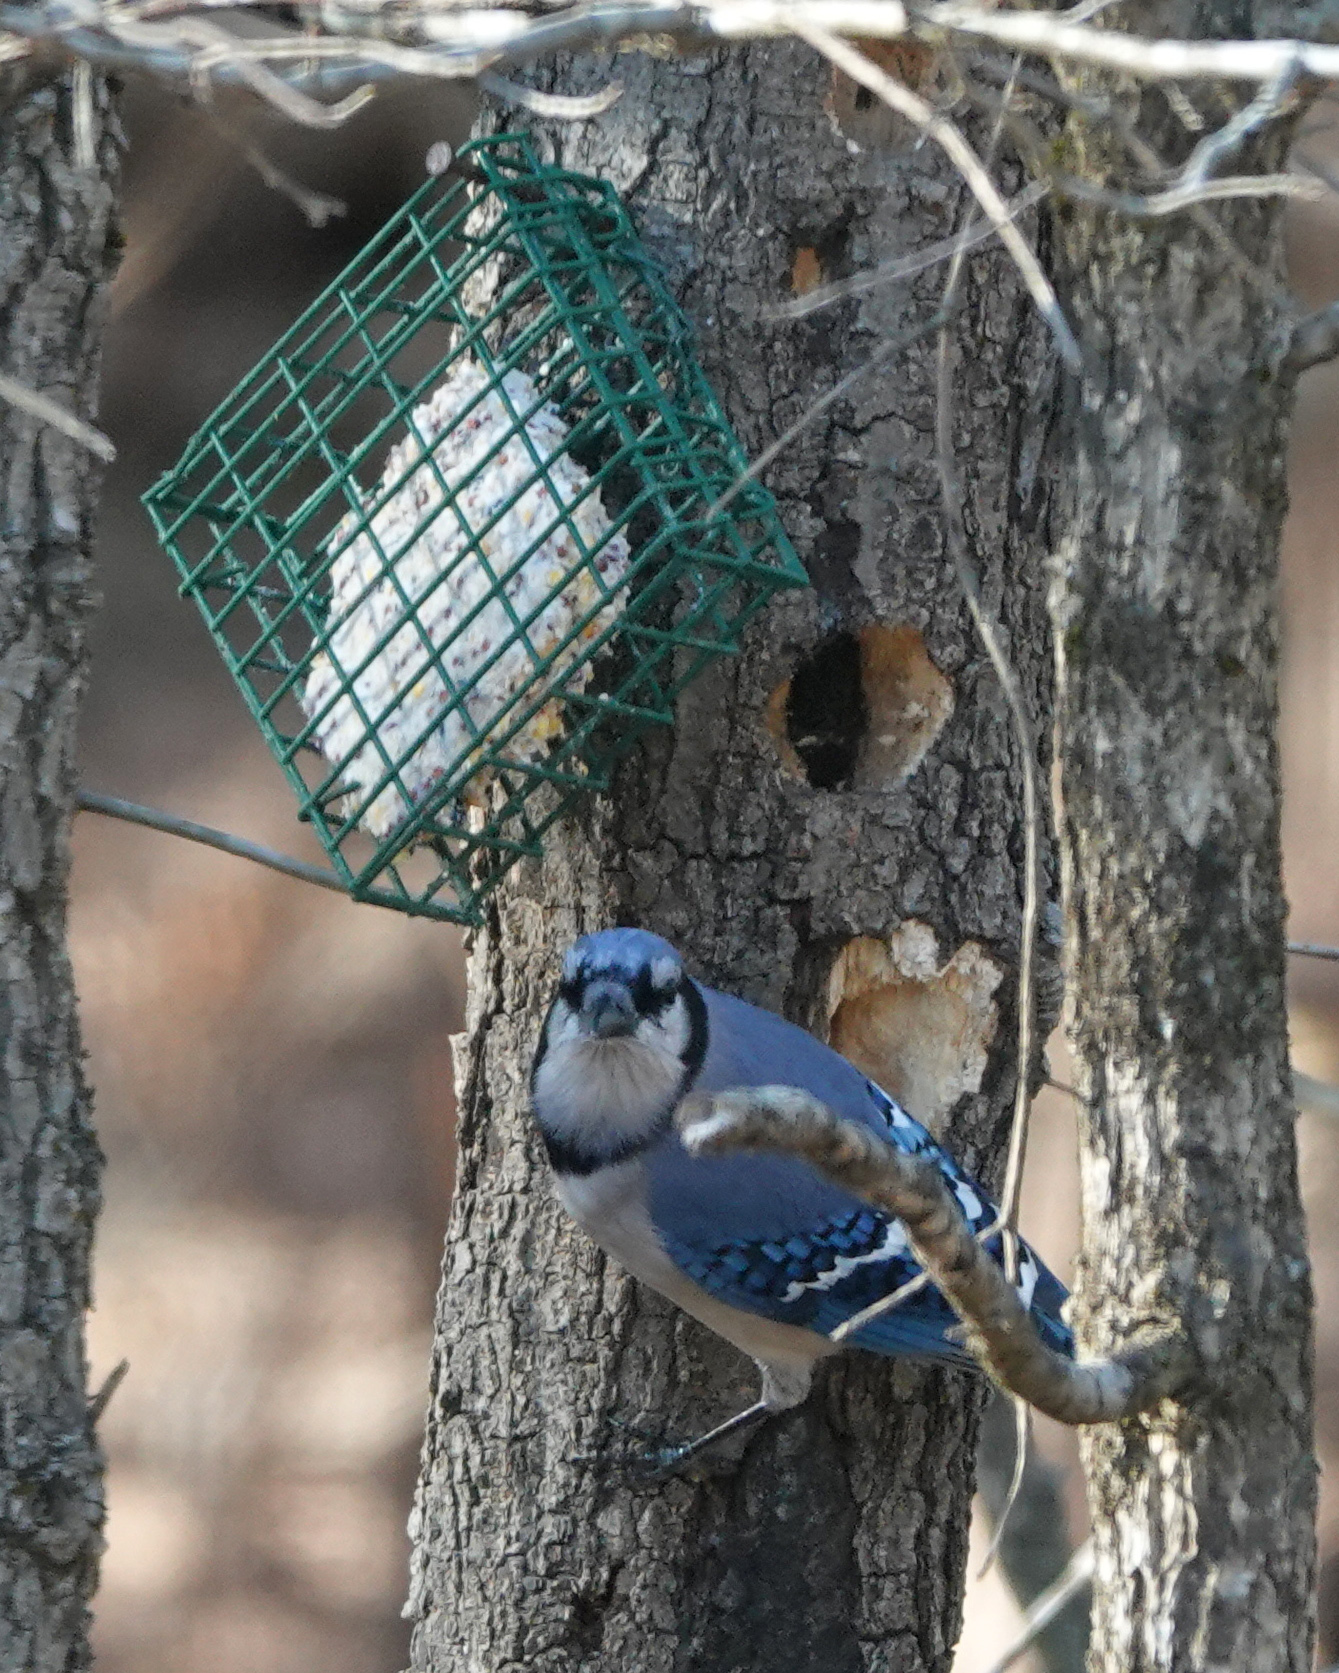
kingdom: Animalia
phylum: Chordata
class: Aves
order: Passeriformes
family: Corvidae
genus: Cyanocitta
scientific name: Cyanocitta cristata
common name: Blue jay
